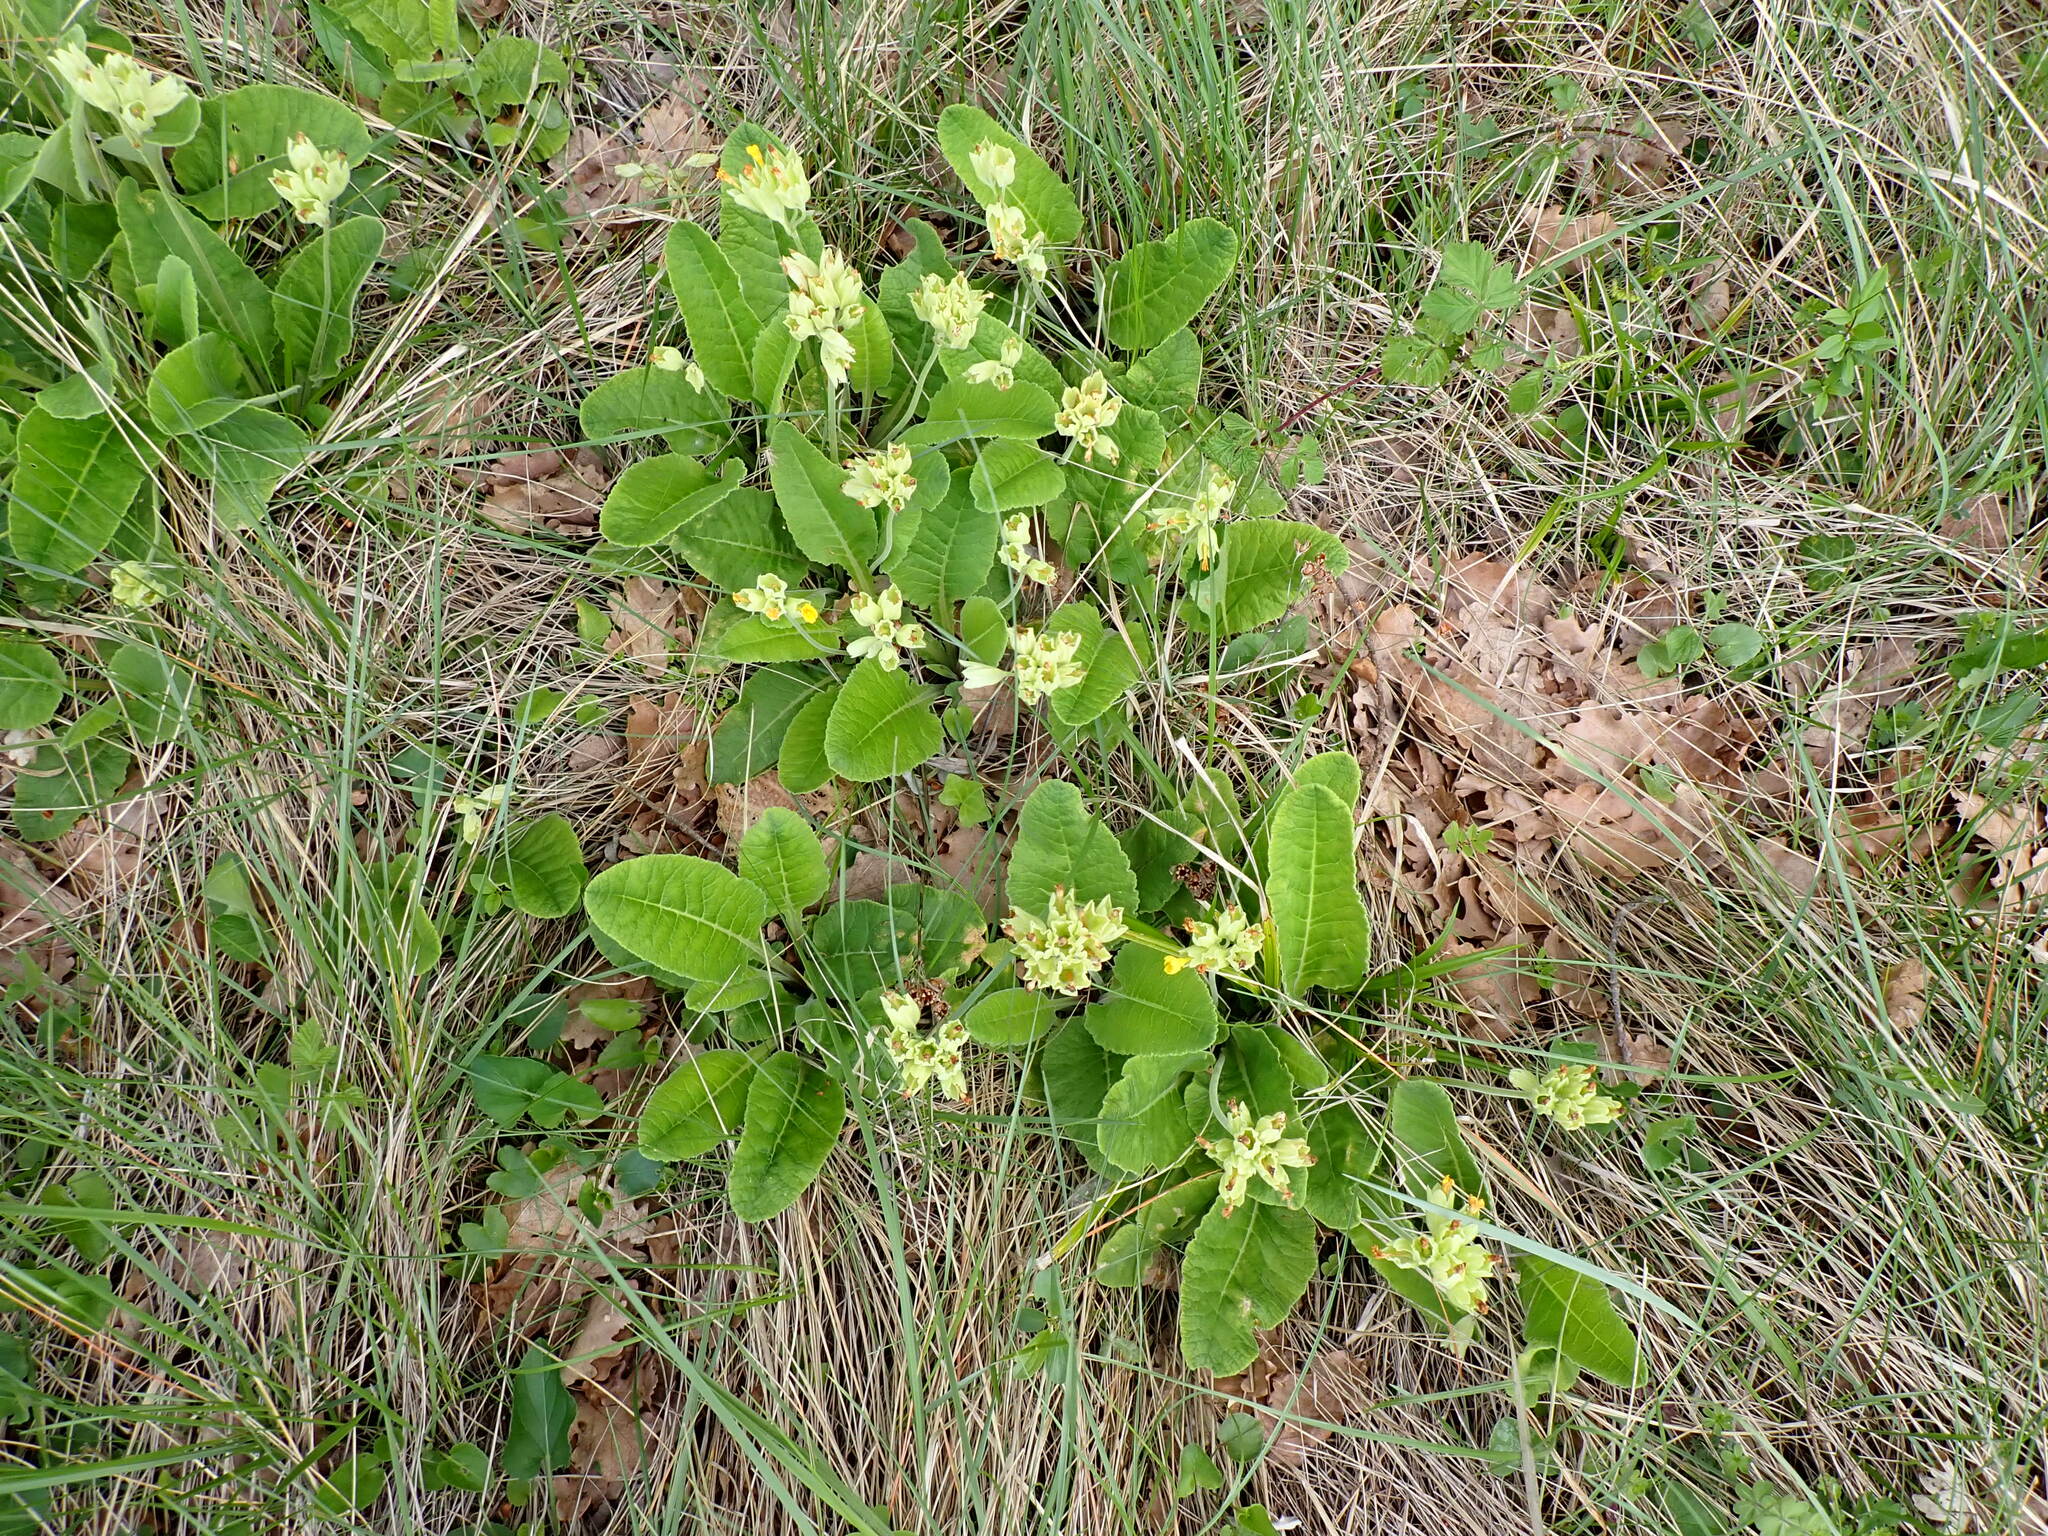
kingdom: Plantae
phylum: Tracheophyta
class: Magnoliopsida
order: Ericales
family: Primulaceae
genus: Primula
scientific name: Primula veris
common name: Cowslip
